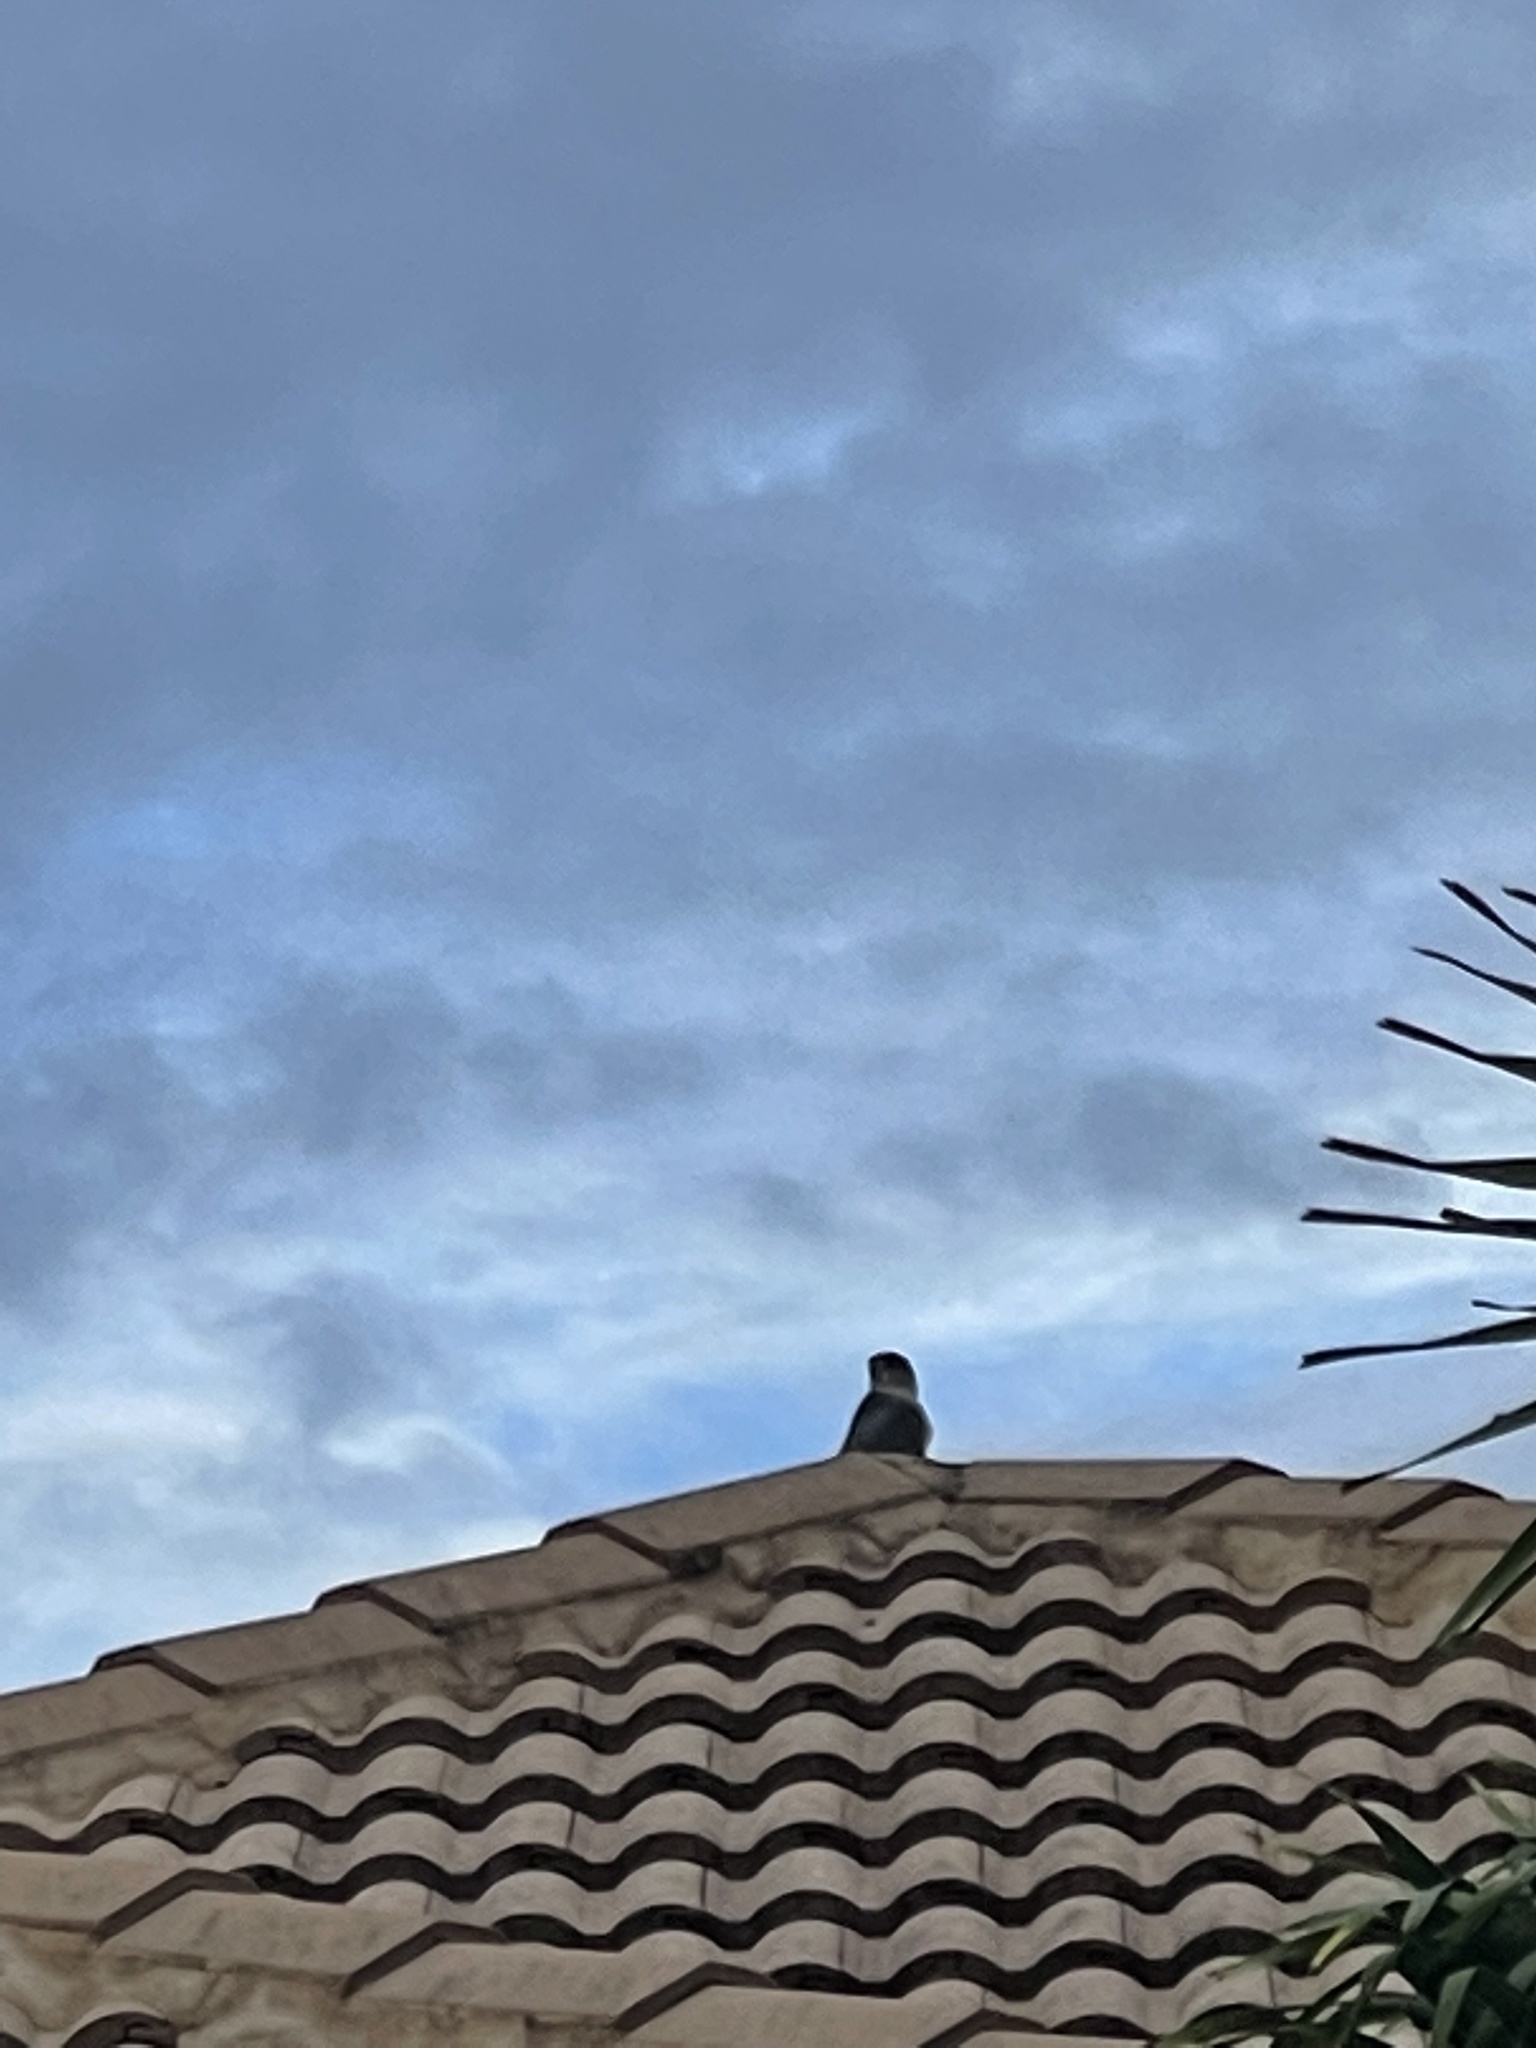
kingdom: Animalia
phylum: Chordata
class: Aves
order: Accipitriformes
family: Accipitridae
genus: Accipiter
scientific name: Accipiter cooperii
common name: Cooper's hawk
